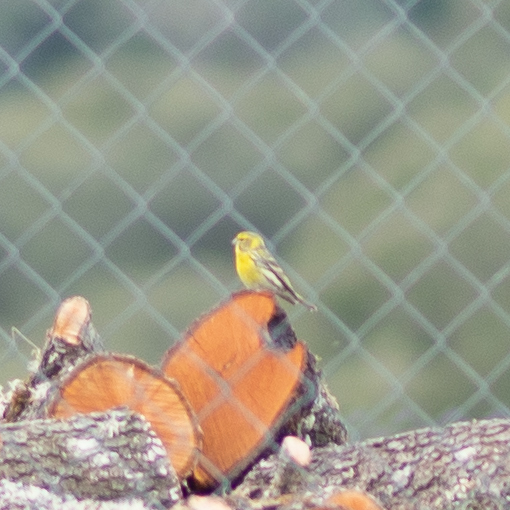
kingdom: Animalia
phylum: Chordata
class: Aves
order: Passeriformes
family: Fringillidae
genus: Serinus
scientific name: Serinus serinus
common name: European serin
